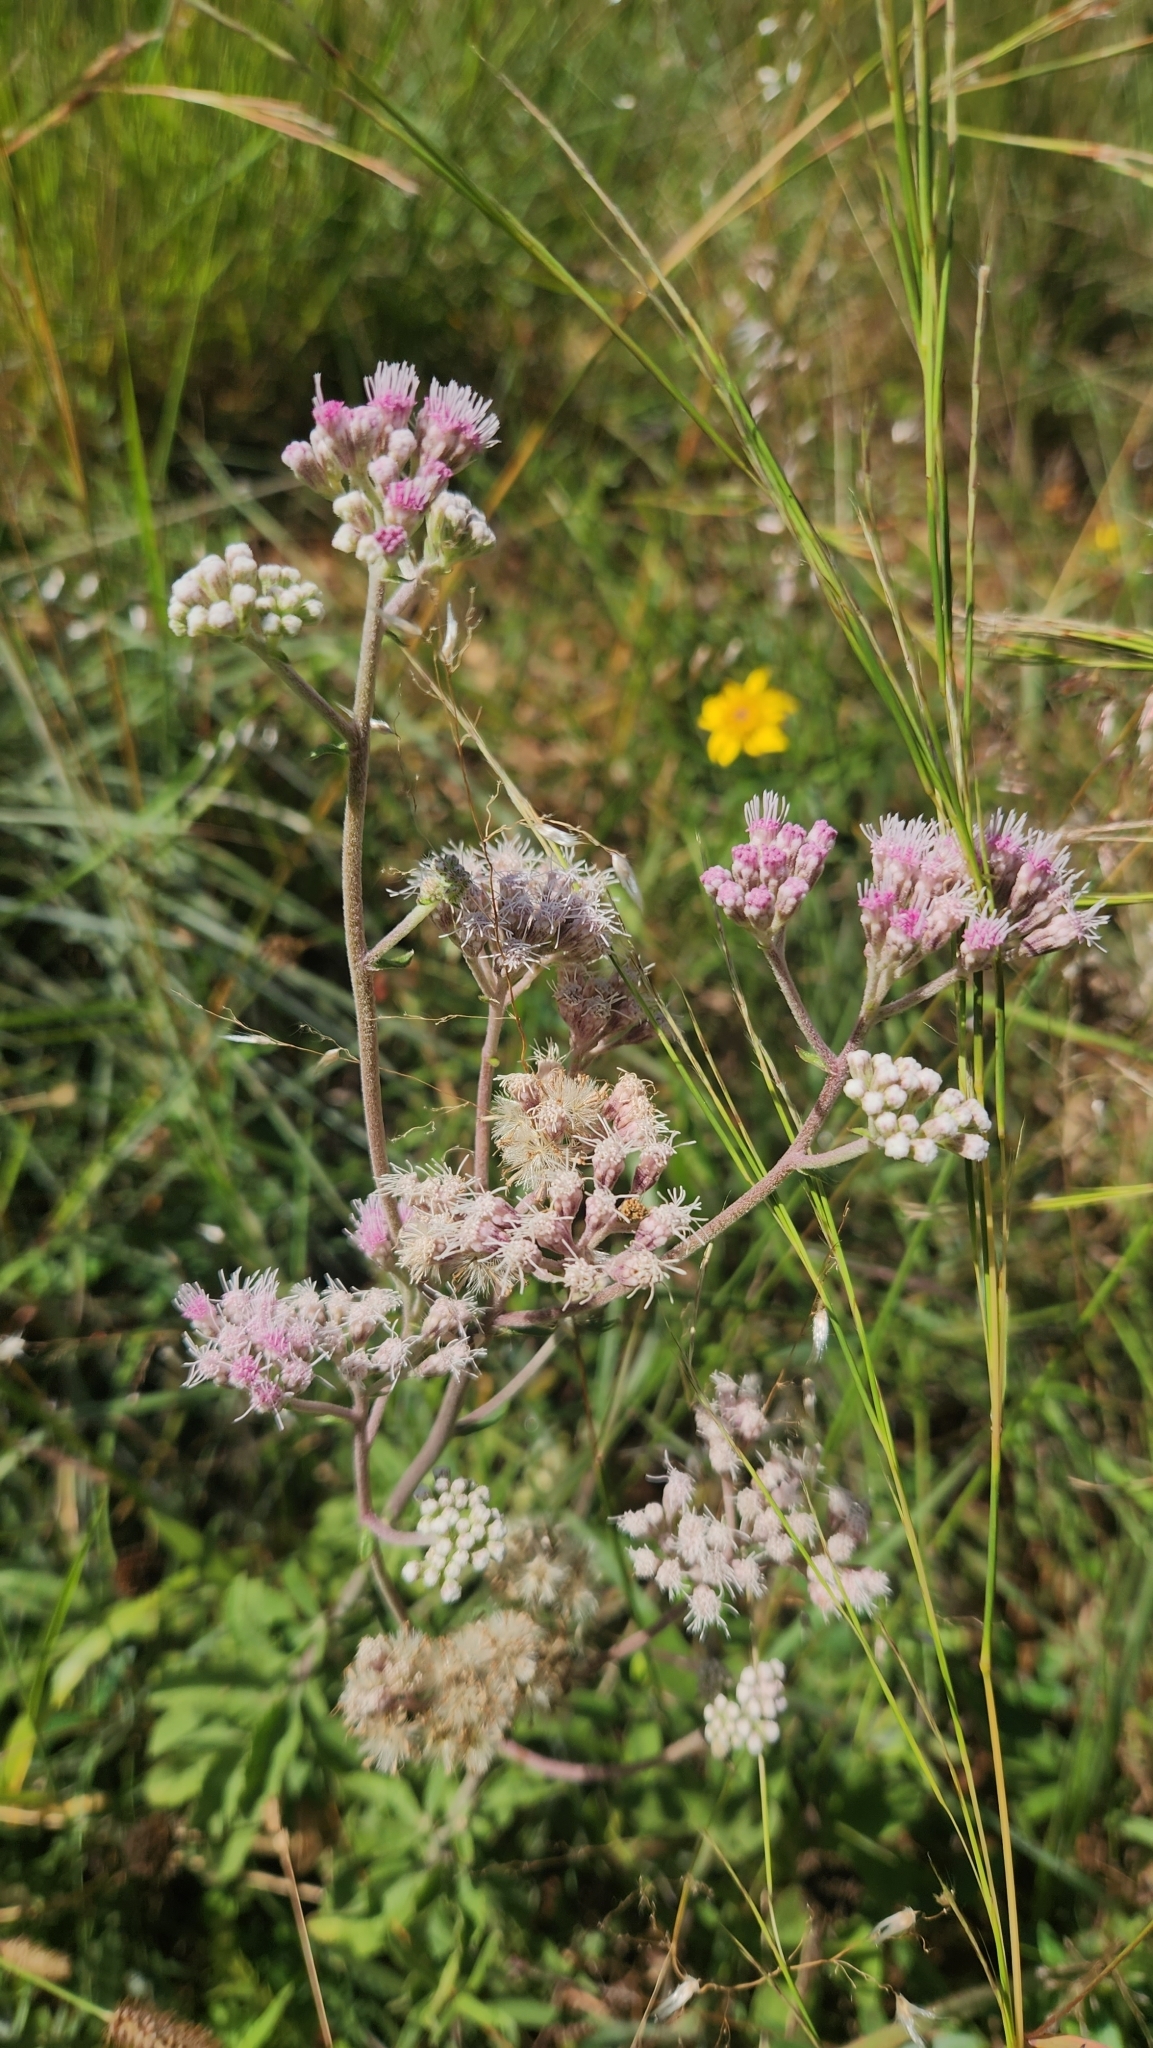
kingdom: Plantae
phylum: Tracheophyta
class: Magnoliopsida
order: Asterales
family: Asteraceae
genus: Gyptis
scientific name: Gyptis lanigera
